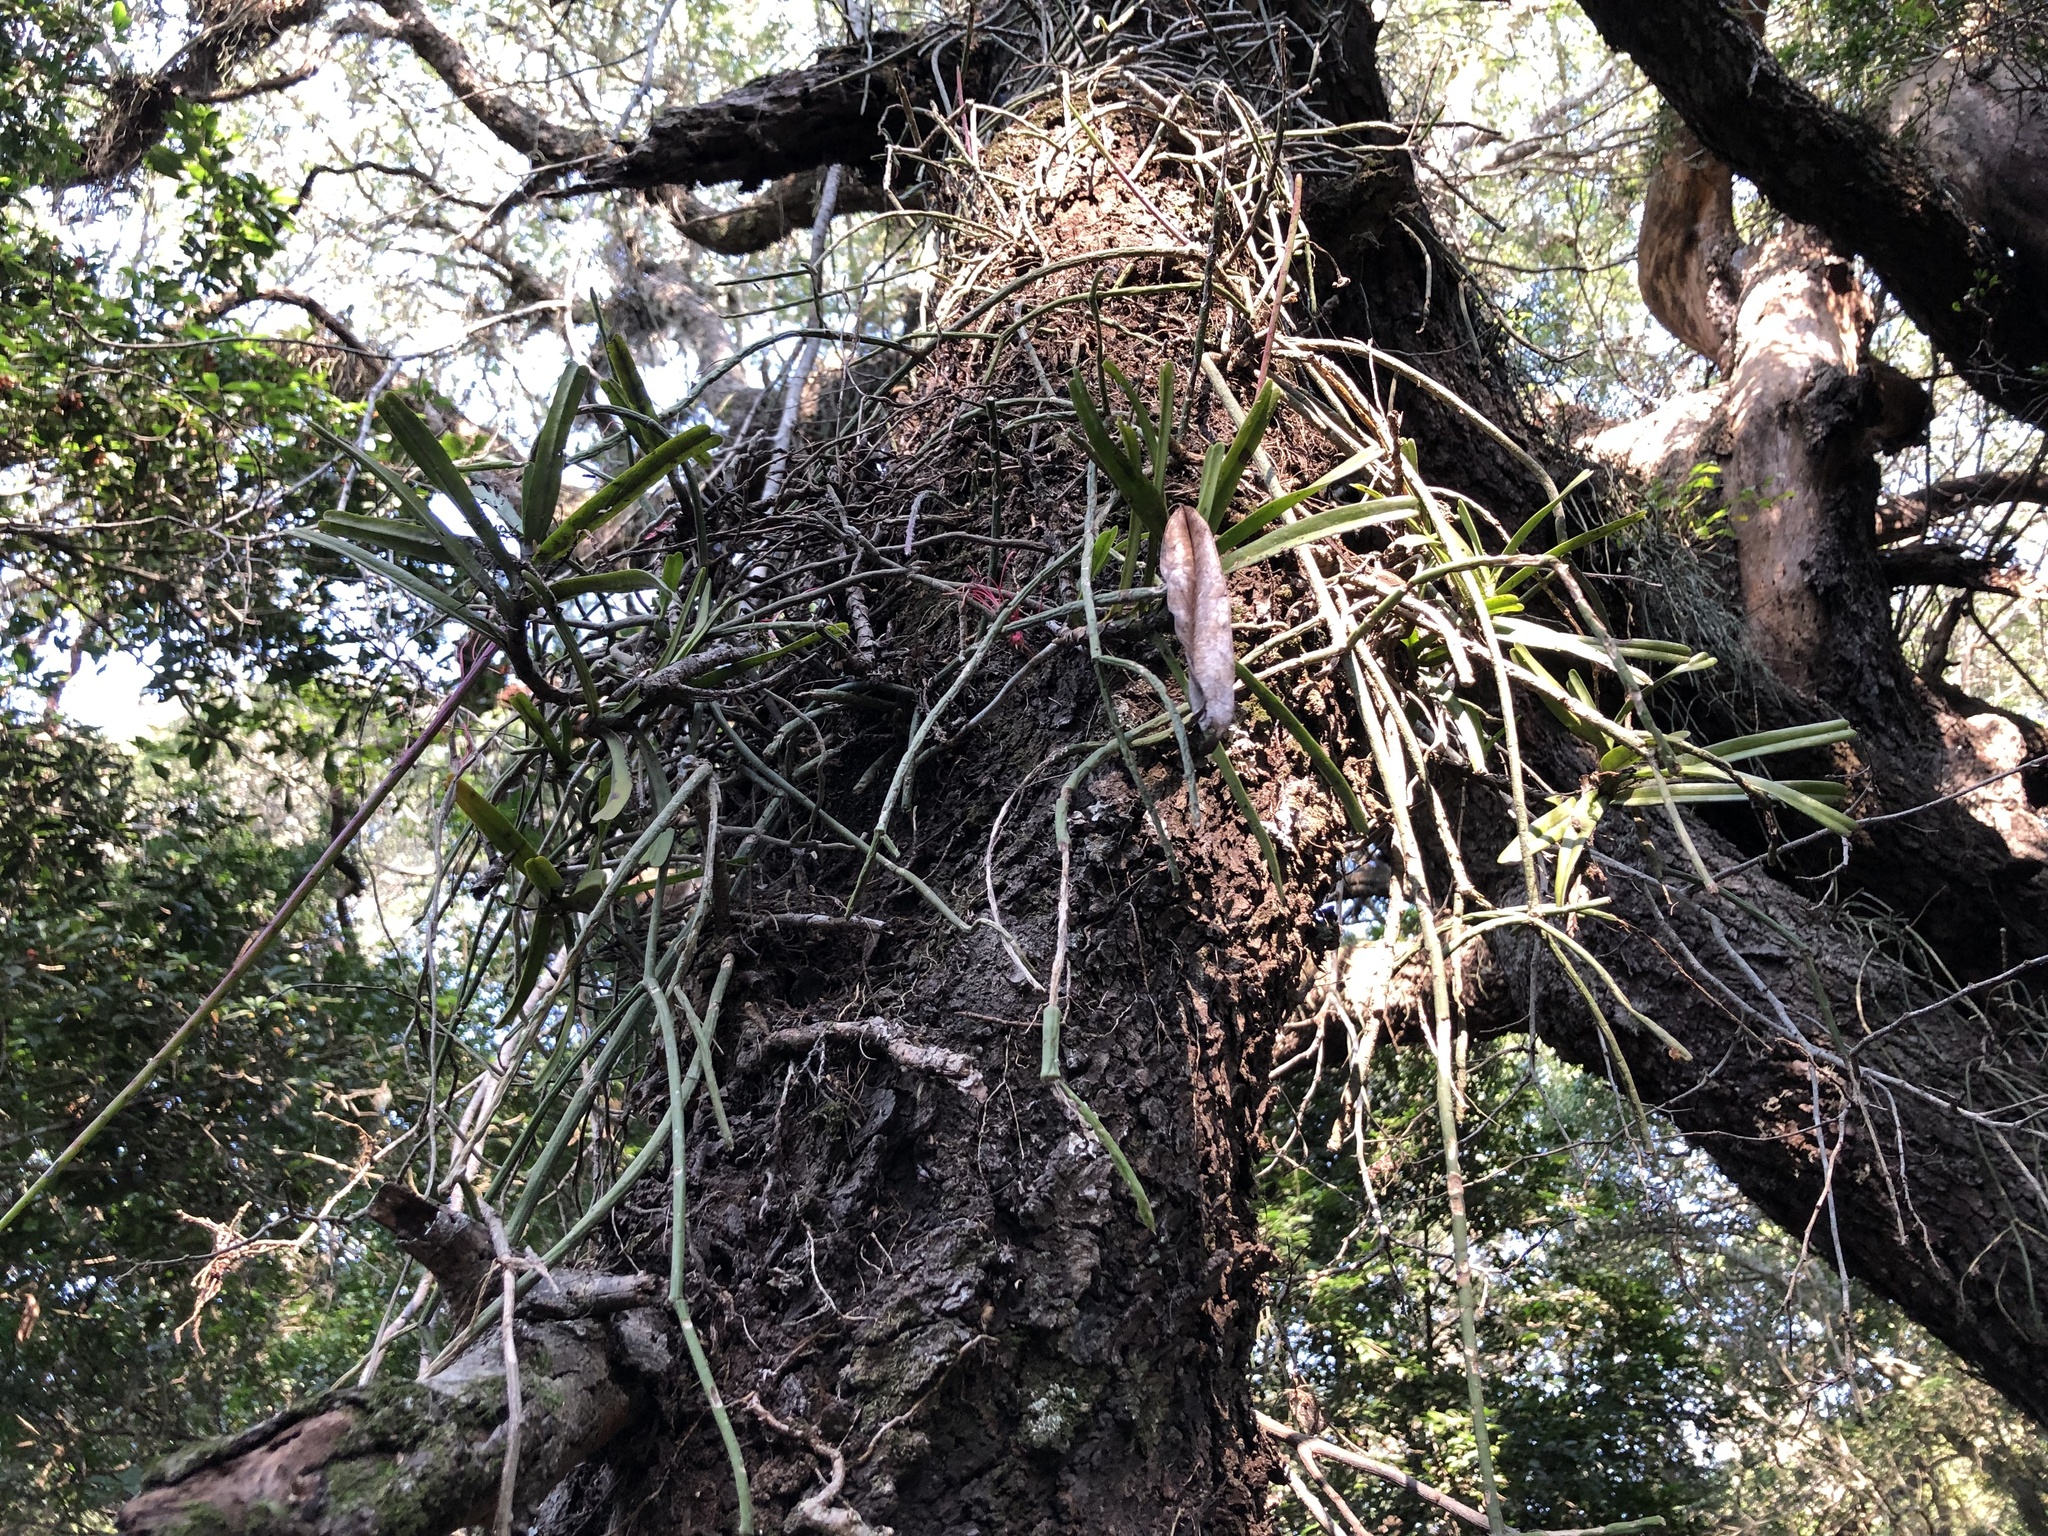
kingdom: Plantae
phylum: Tracheophyta
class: Magnoliopsida
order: Caryophyllales
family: Cactaceae
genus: Rhipsalis
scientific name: Rhipsalis baccifera
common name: Mistletoe cactus
